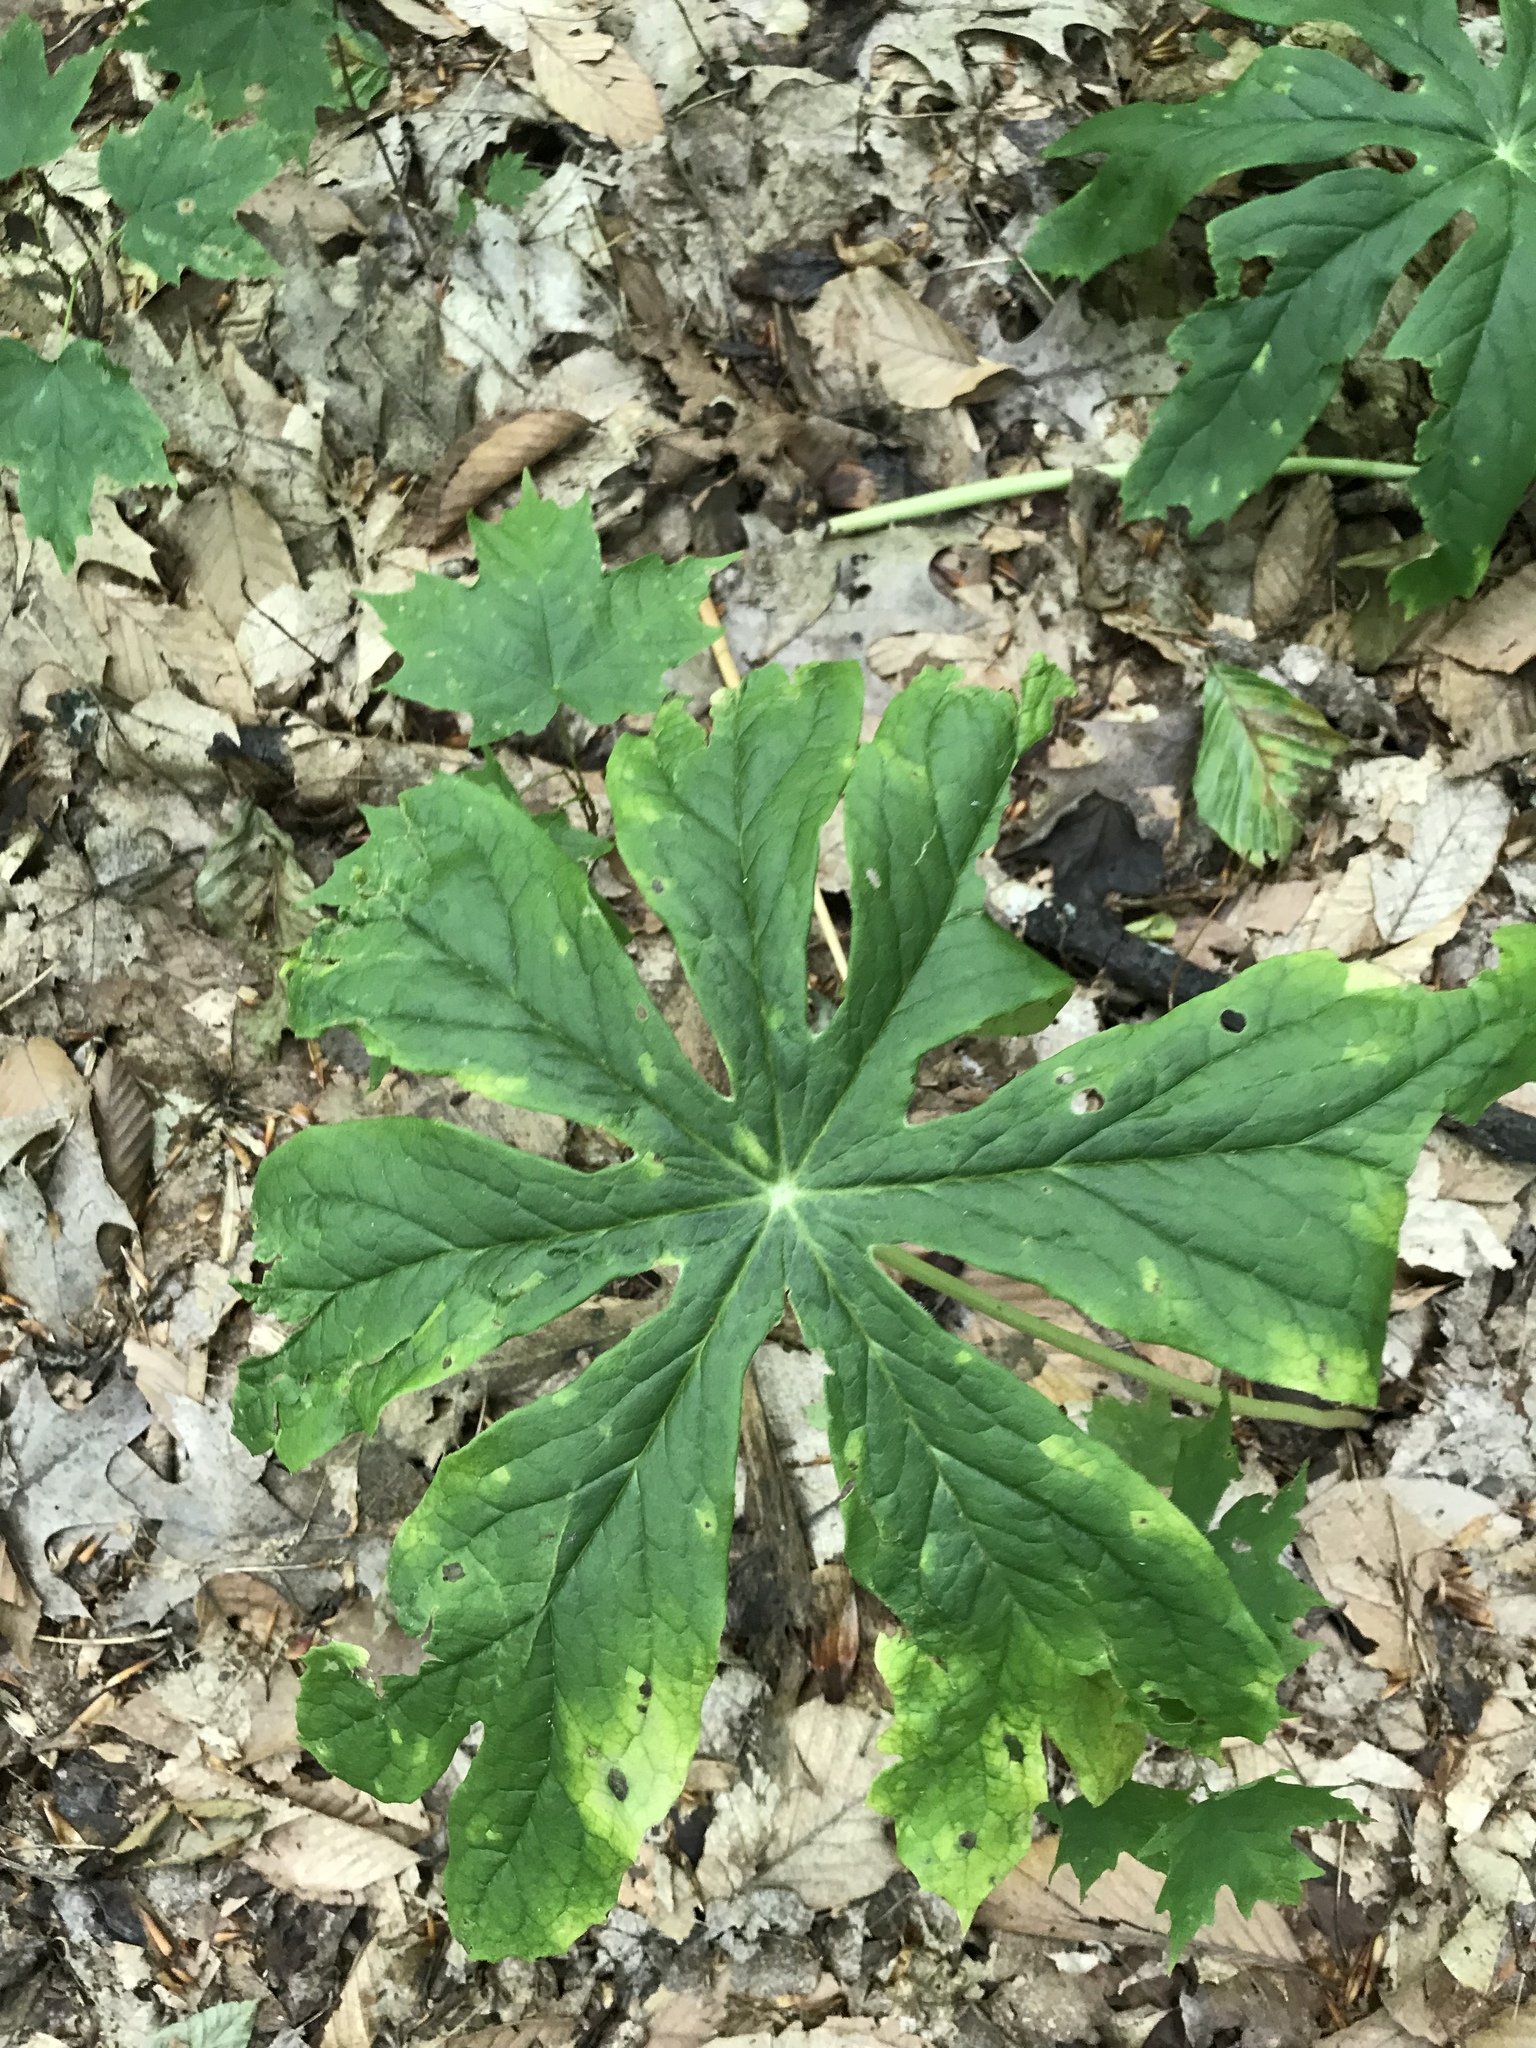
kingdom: Plantae
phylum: Tracheophyta
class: Magnoliopsida
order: Ranunculales
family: Berberidaceae
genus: Podophyllum
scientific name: Podophyllum peltatum
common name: Wild mandrake
